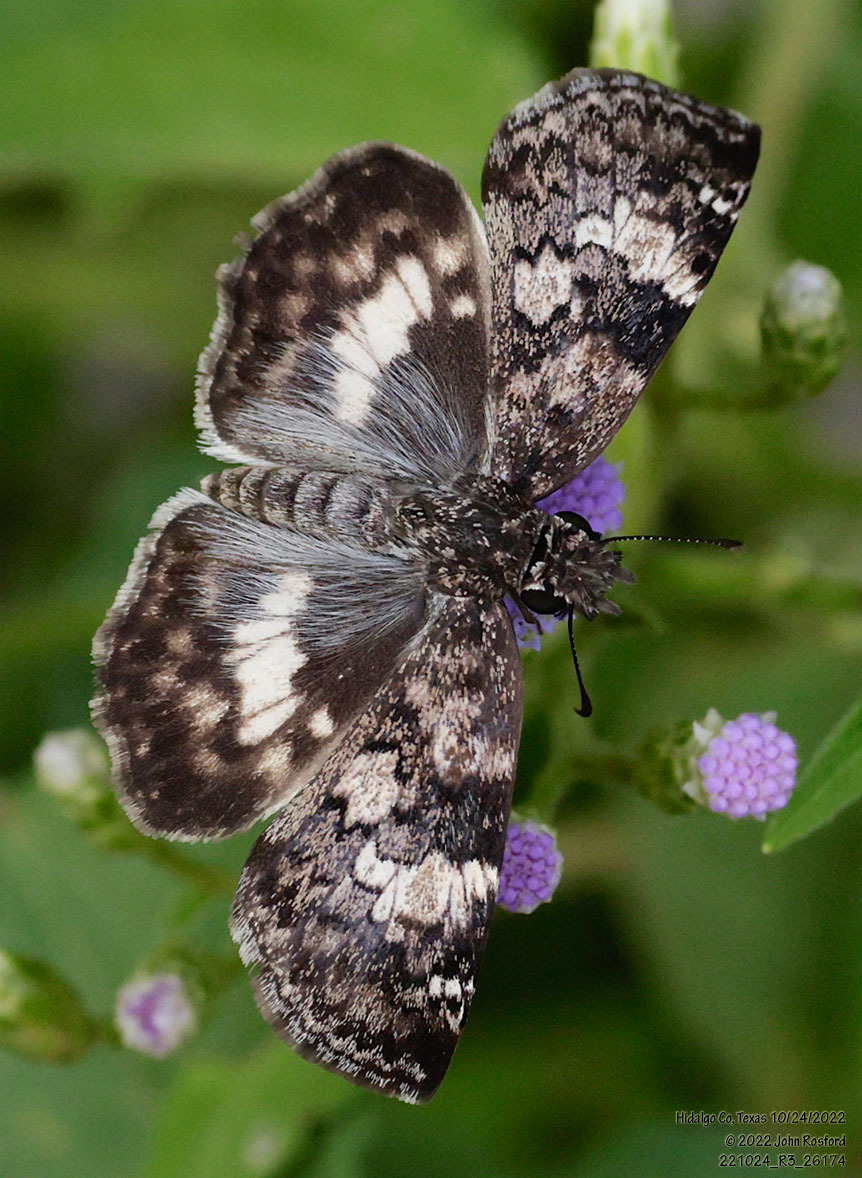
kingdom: Animalia
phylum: Arthropoda
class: Insecta
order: Lepidoptera
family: Hesperiidae
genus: Chiothion
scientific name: Chiothion georgina
